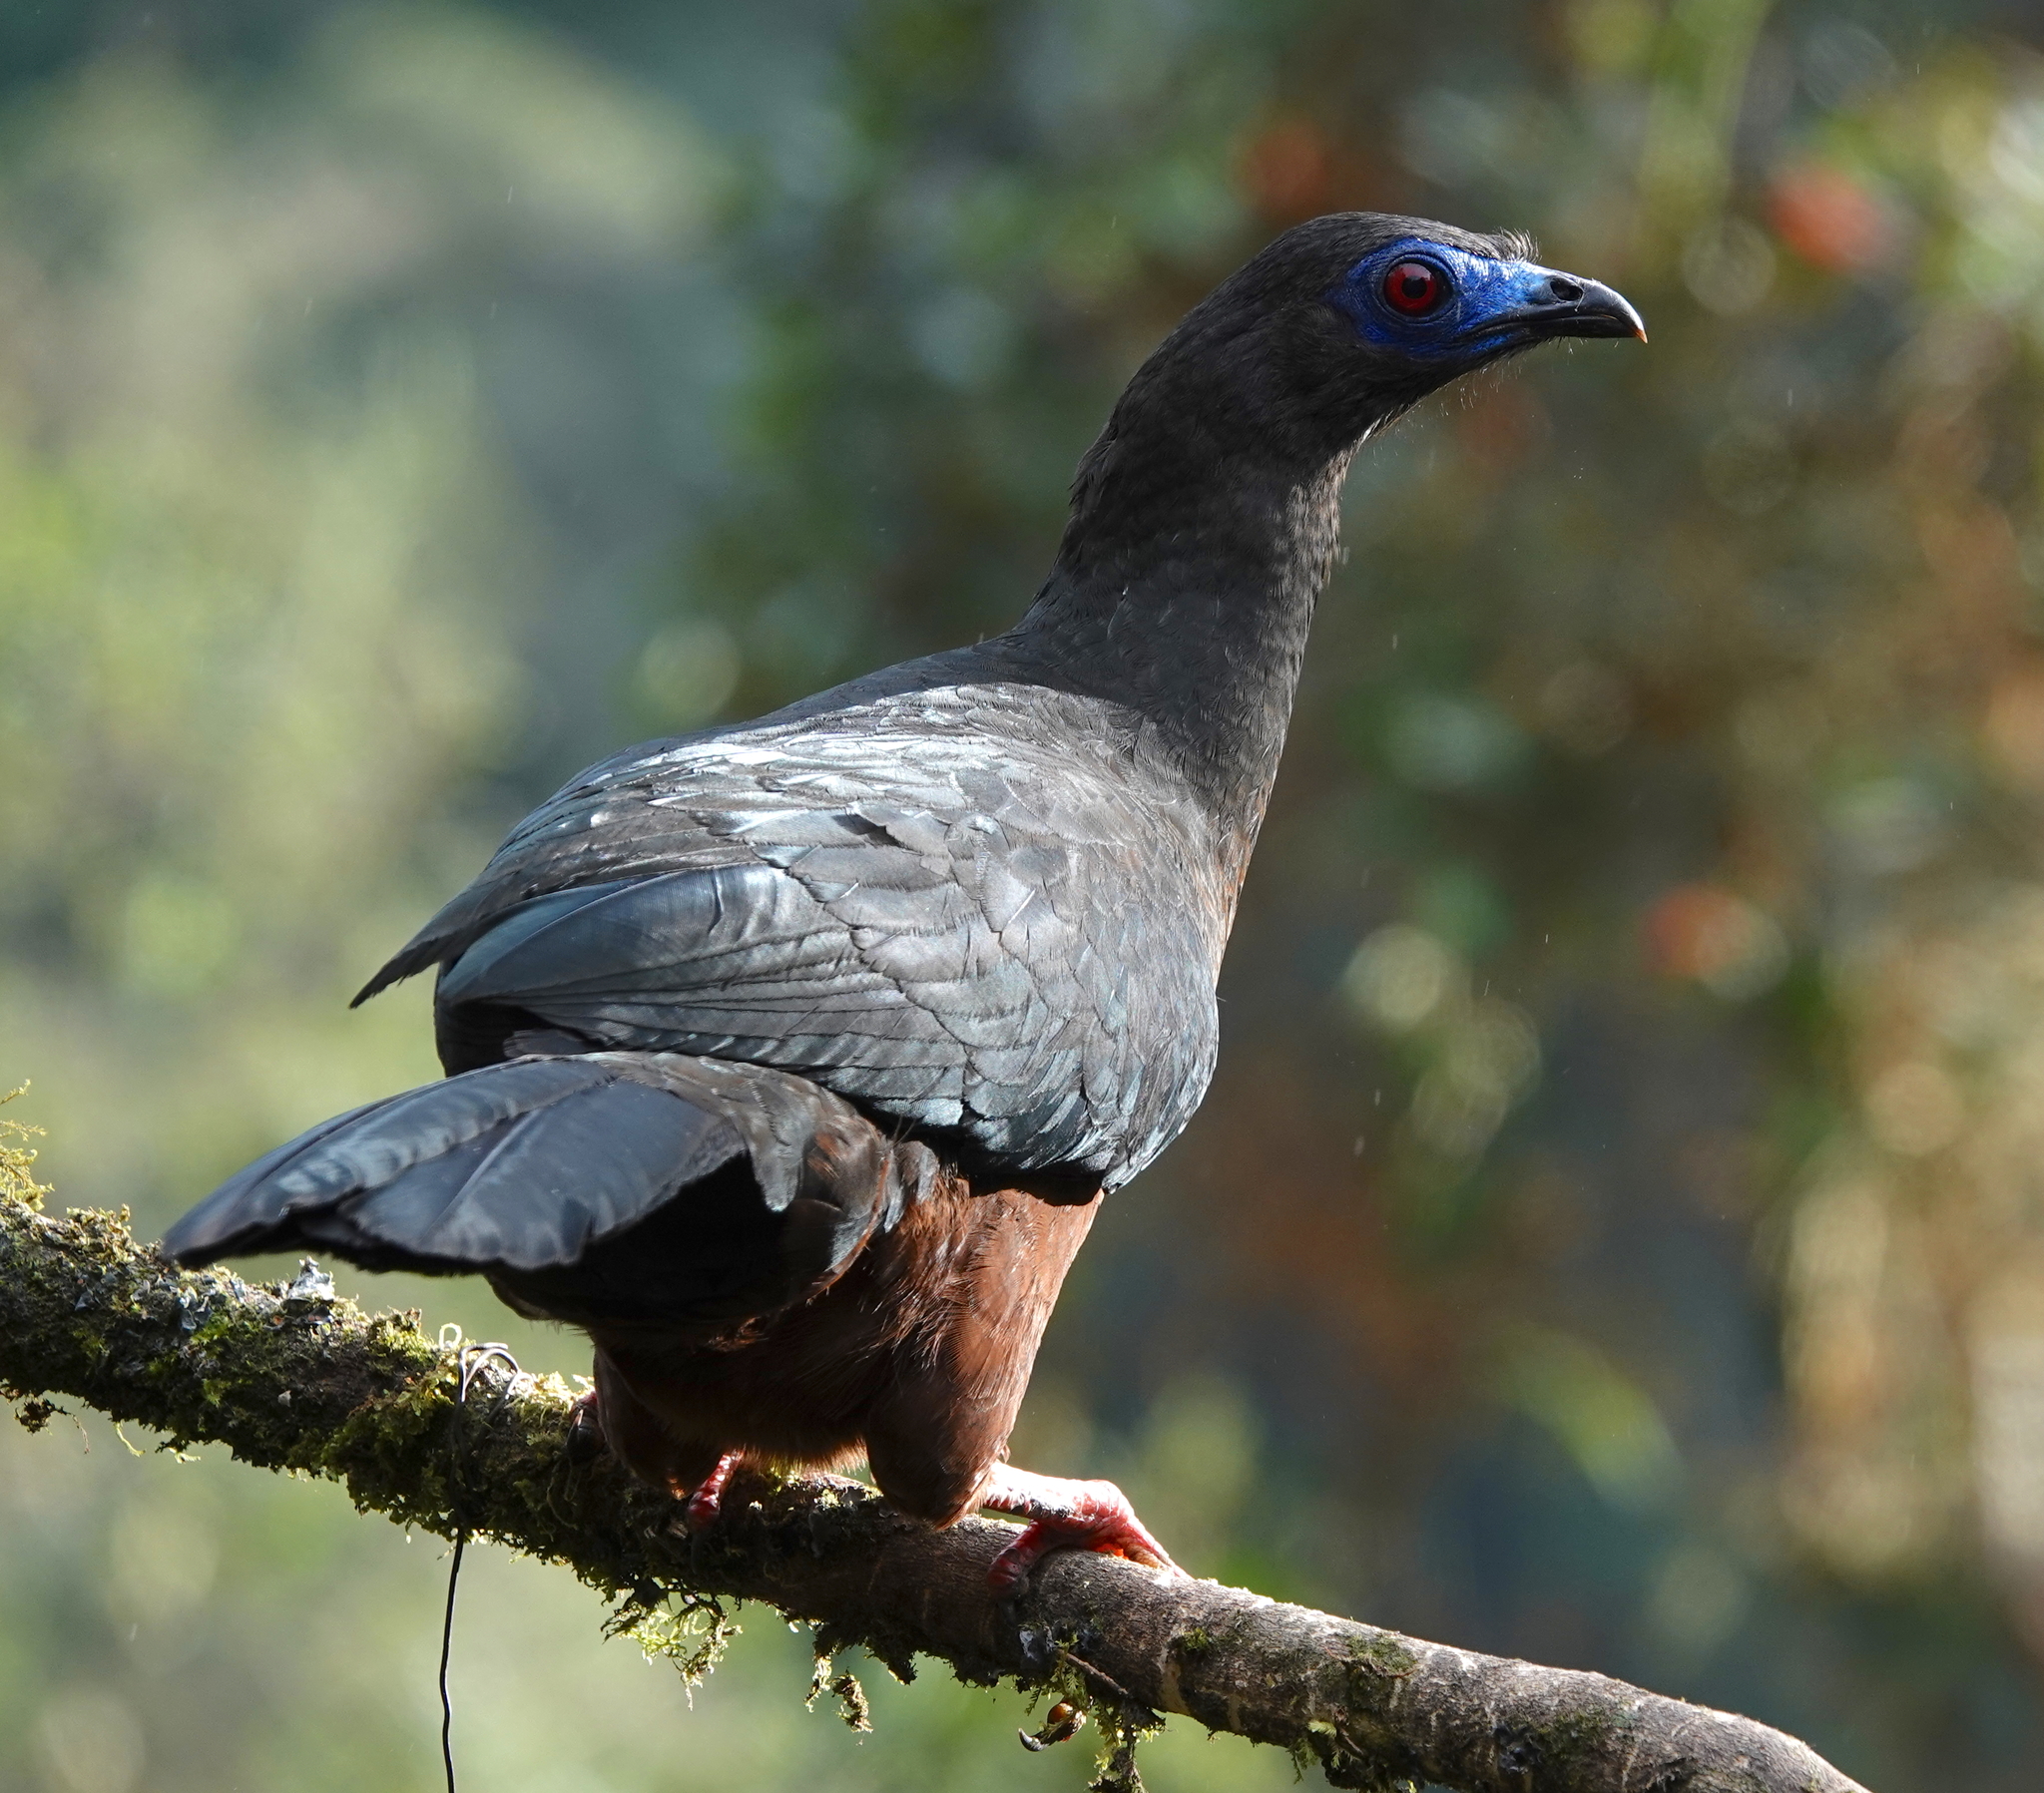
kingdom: Animalia
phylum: Chordata
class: Aves
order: Galliformes
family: Cracidae
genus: Chamaepetes
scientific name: Chamaepetes goudotii
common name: Sickle-winged guan
